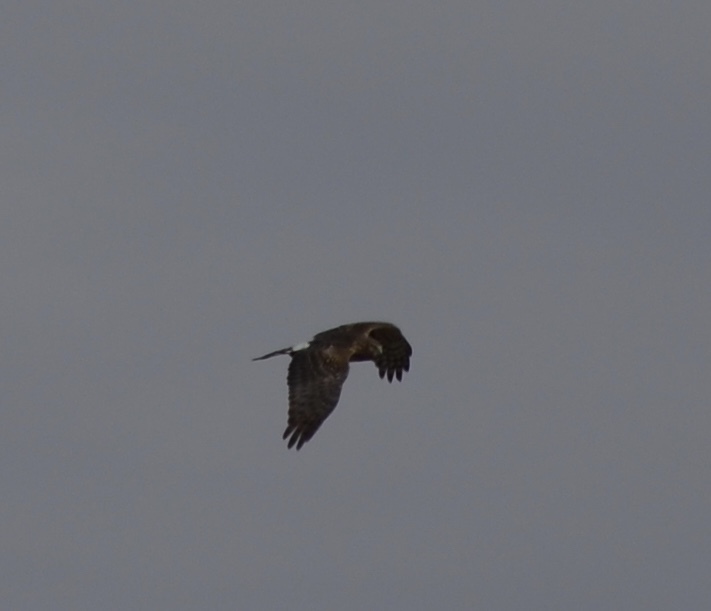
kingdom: Animalia
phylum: Chordata
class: Aves
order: Accipitriformes
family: Accipitridae
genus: Circus
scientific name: Circus cyaneus
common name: Hen harrier
